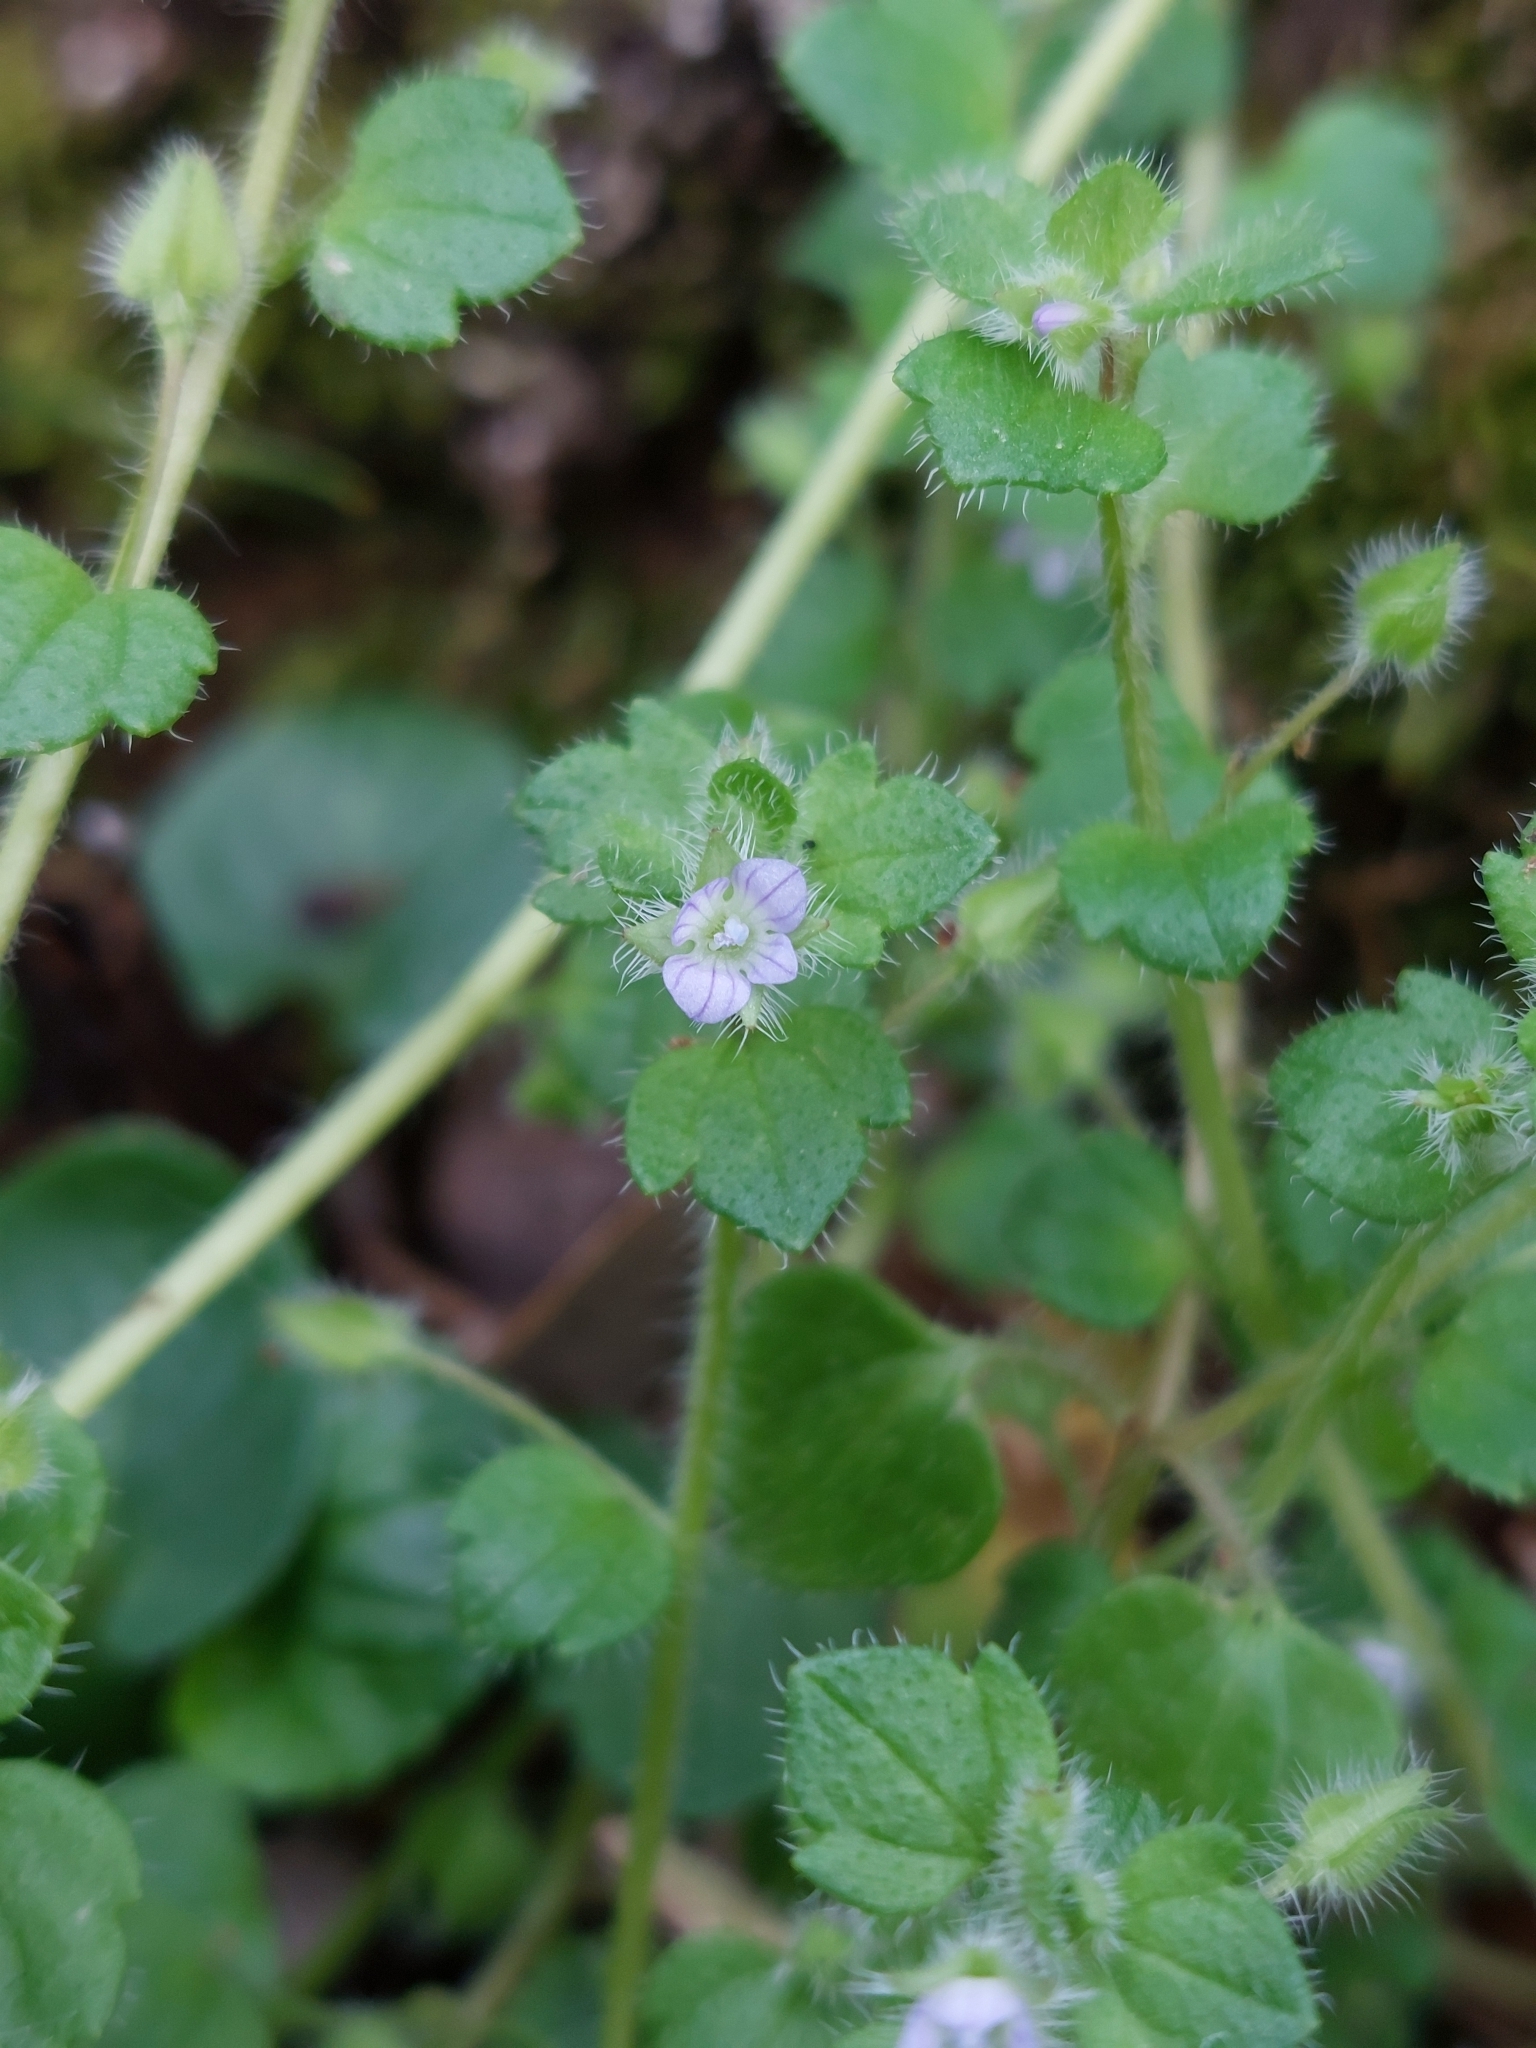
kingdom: Plantae
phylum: Tracheophyta
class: Magnoliopsida
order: Lamiales
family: Plantaginaceae
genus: Veronica
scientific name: Veronica sublobata
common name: False ivy-leaved speedwell
